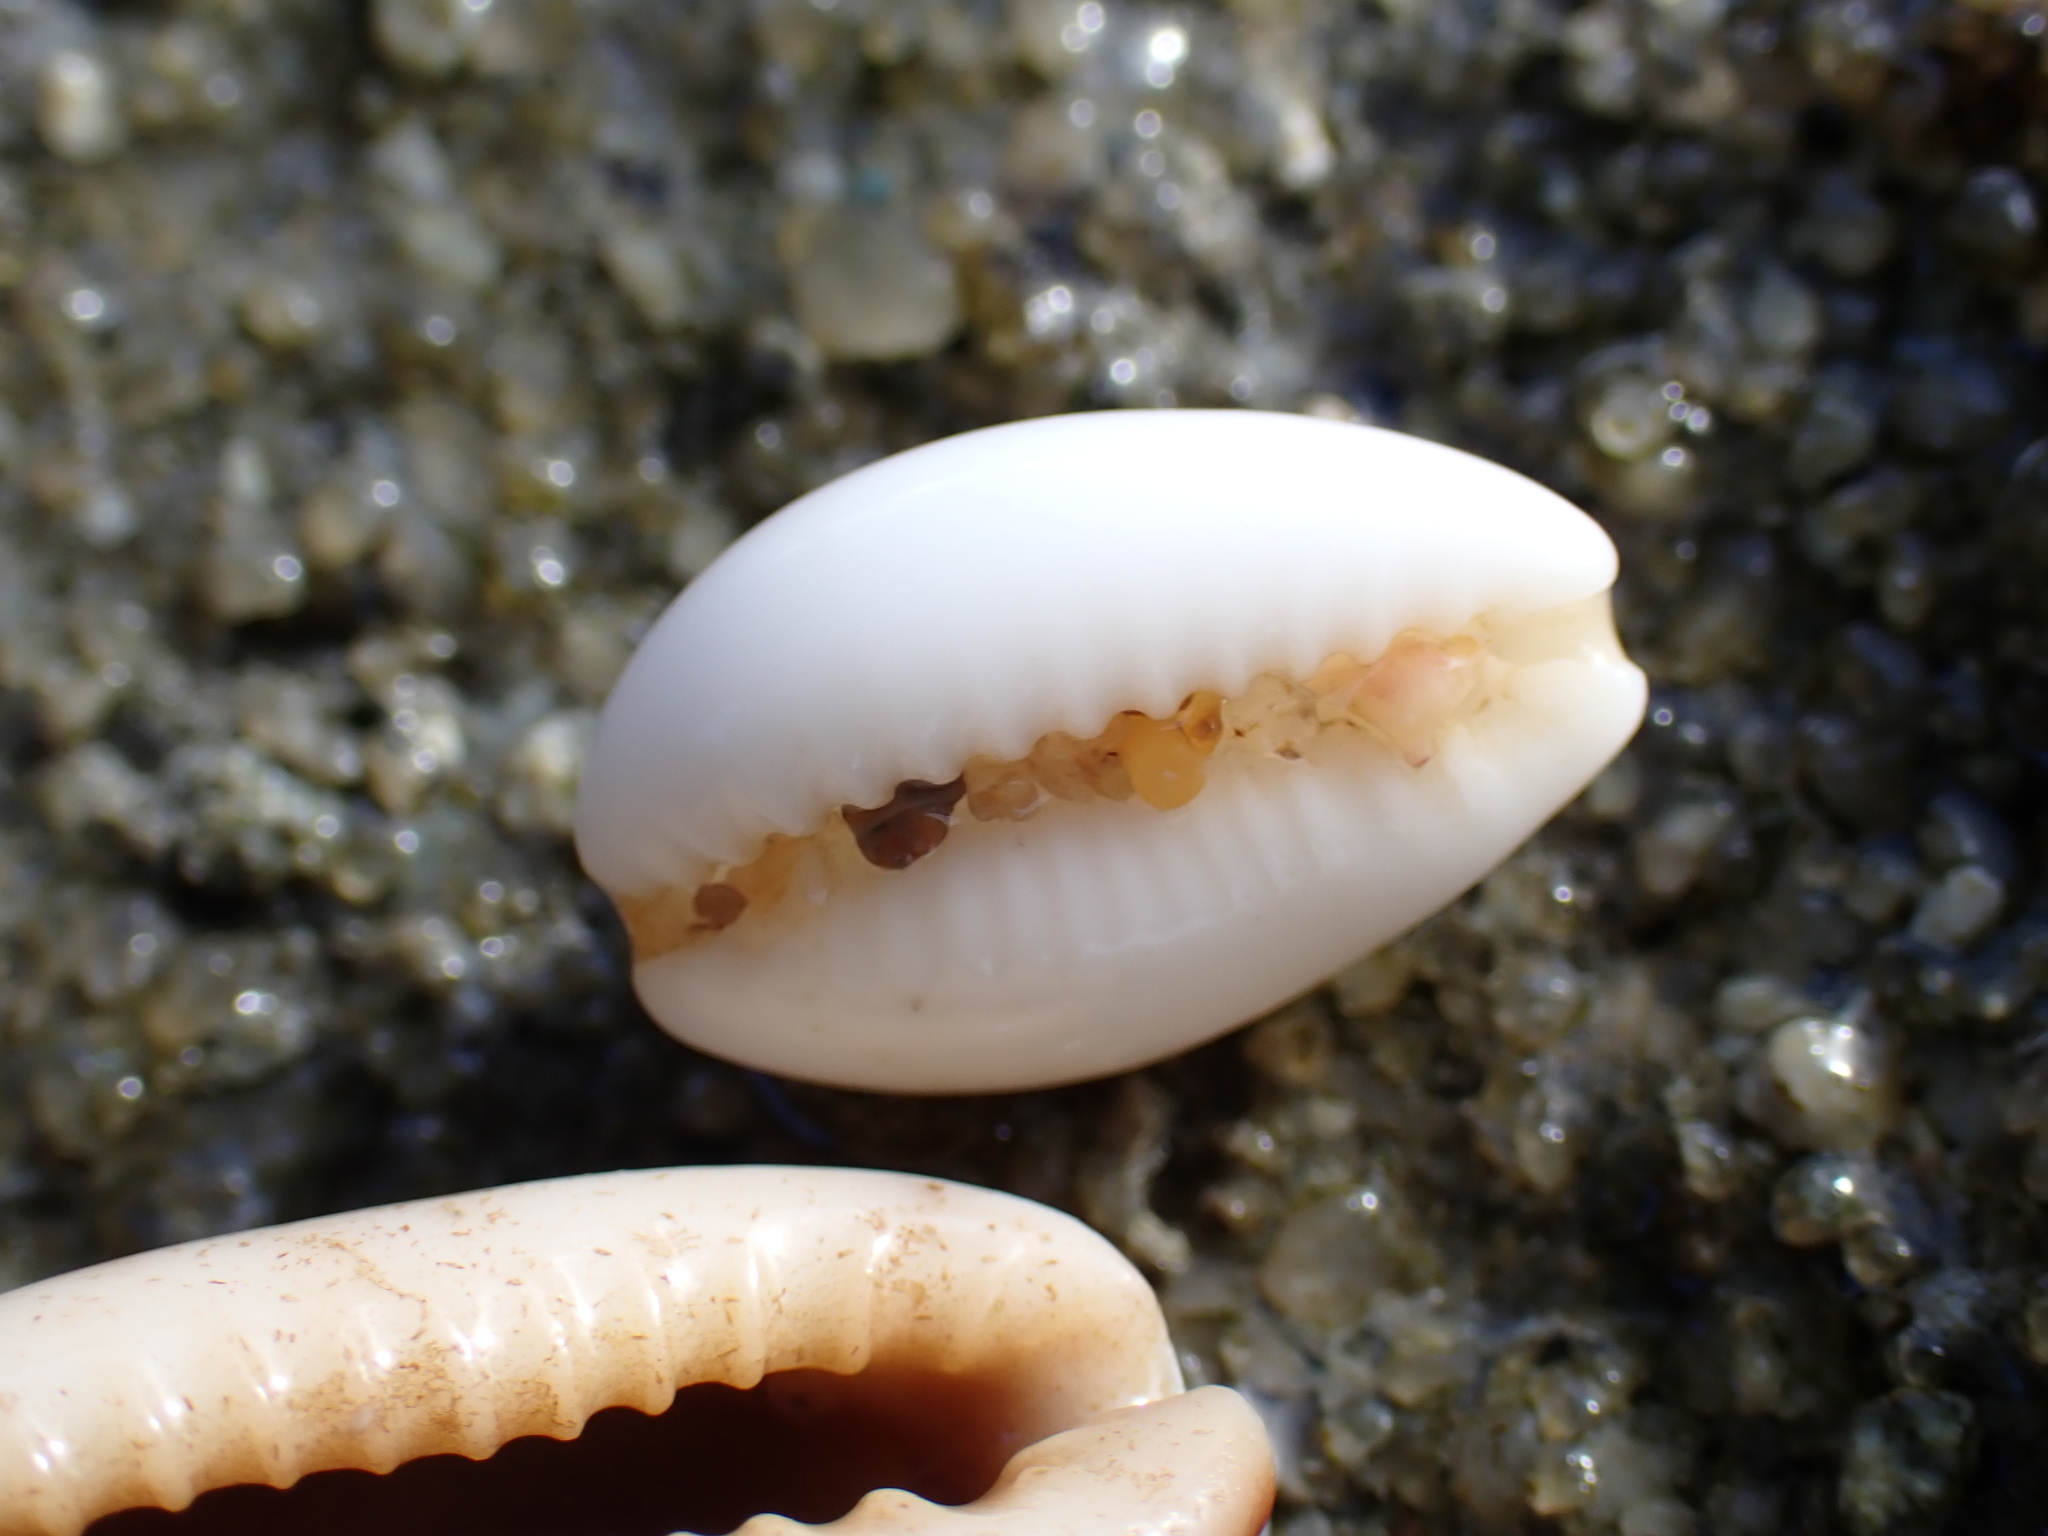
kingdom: Animalia
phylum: Mollusca
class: Gastropoda
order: Littorinimorpha
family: Cypraeidae
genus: Palmadusta
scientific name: Palmadusta clandestina
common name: Cowrie
